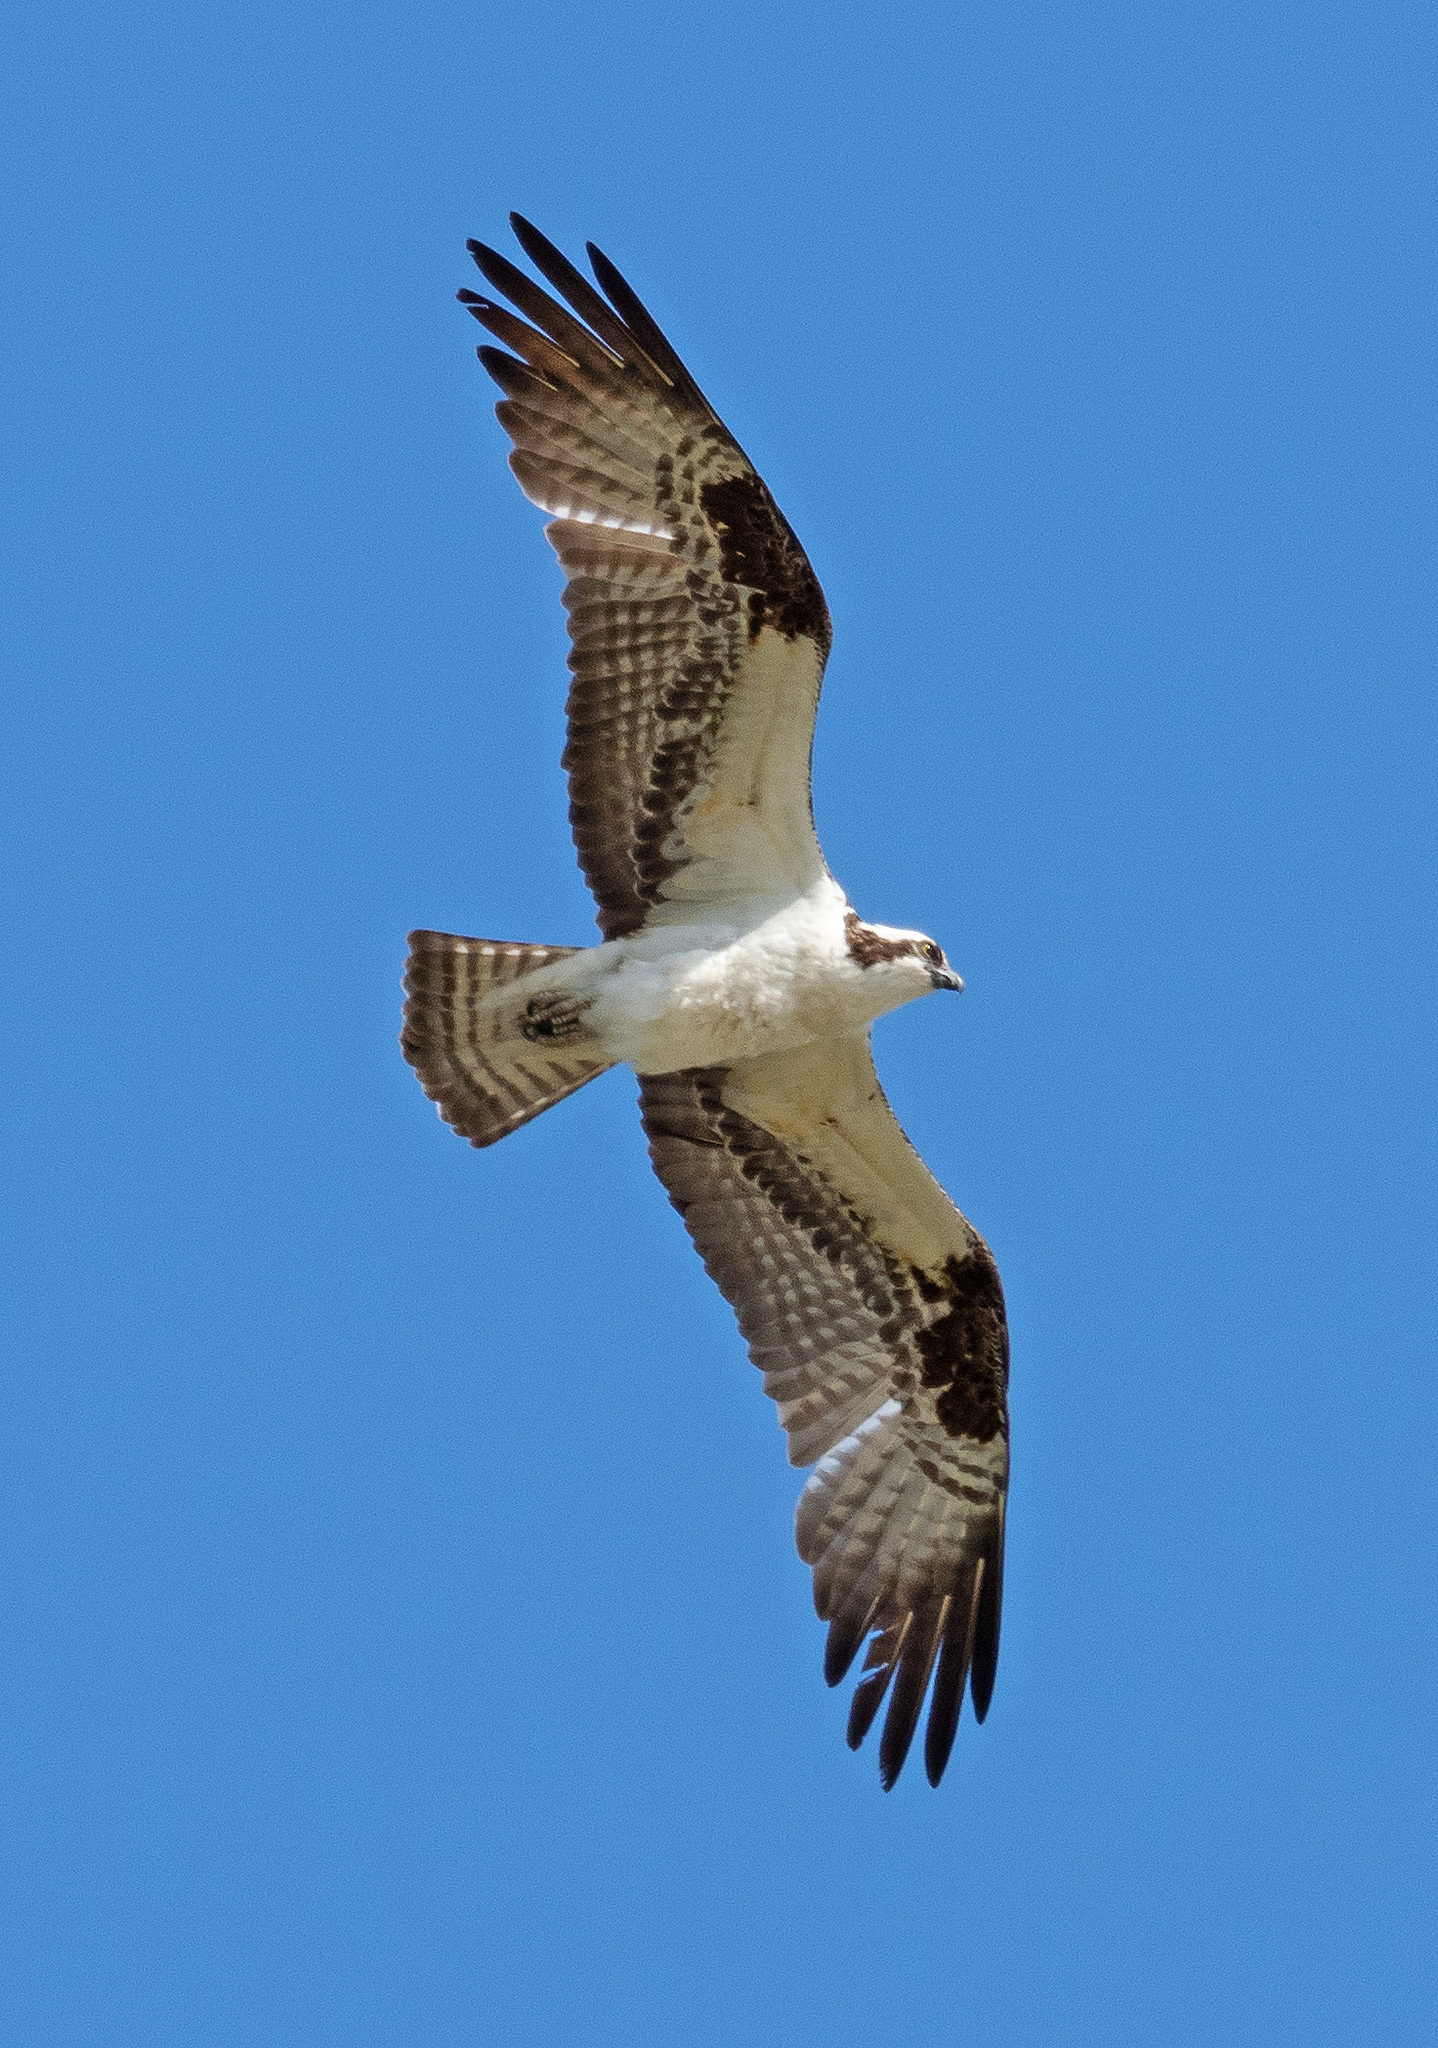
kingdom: Animalia
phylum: Chordata
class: Aves
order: Accipitriformes
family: Pandionidae
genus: Pandion
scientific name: Pandion haliaetus
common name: Osprey
